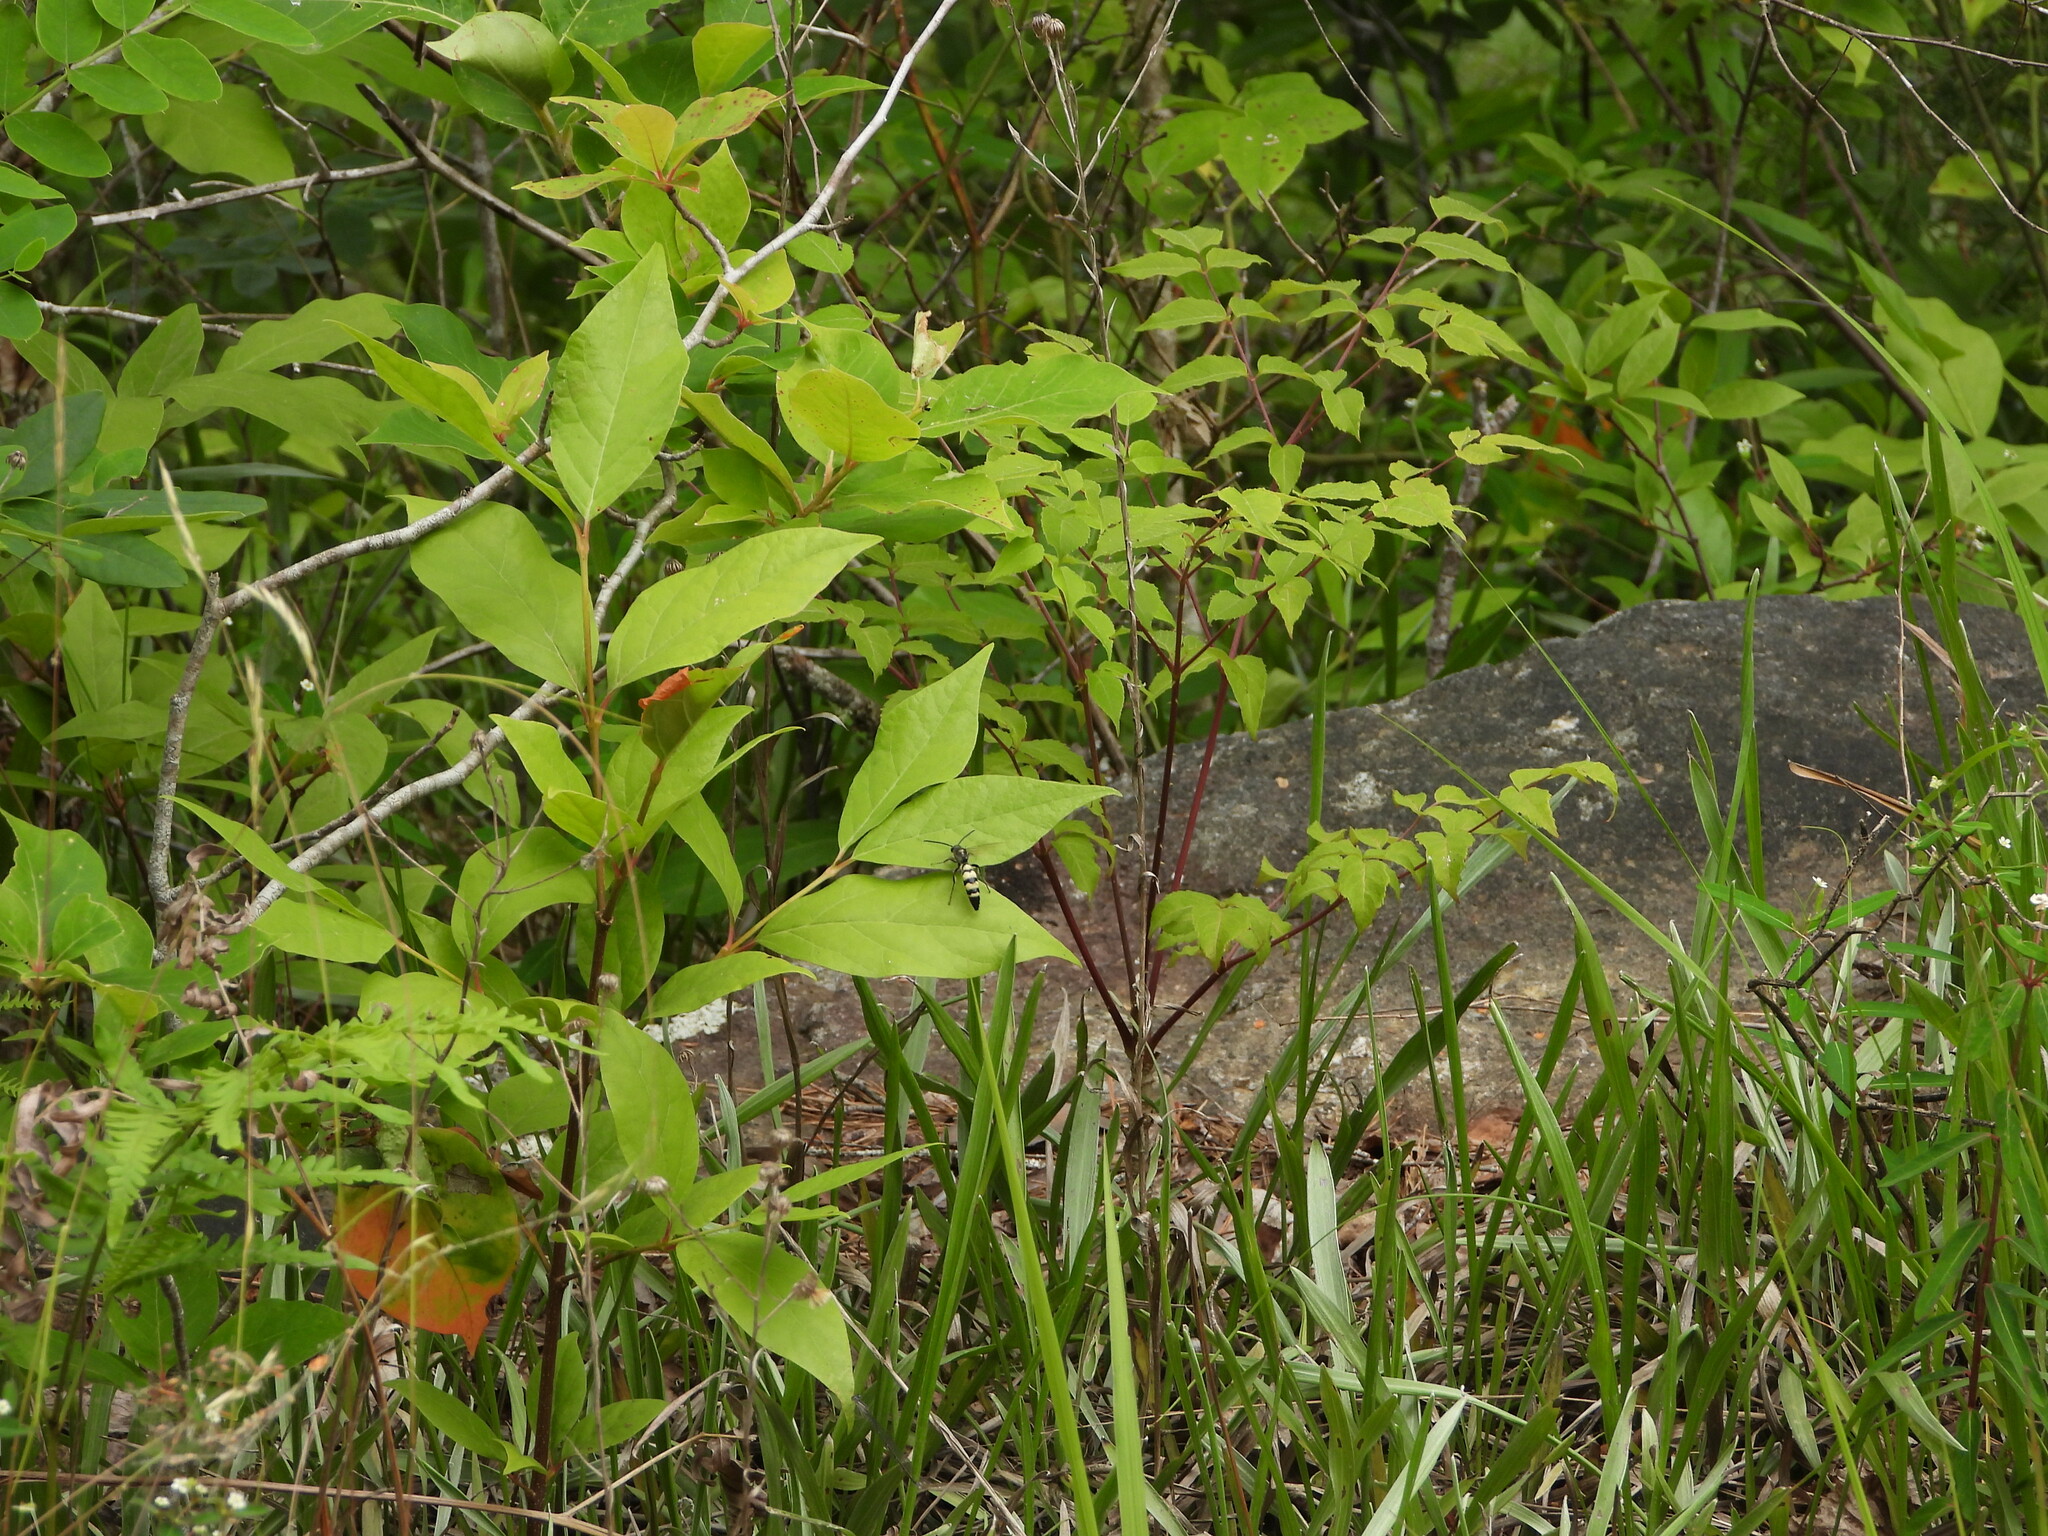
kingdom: Animalia
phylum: Arthropoda
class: Insecta
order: Hymenoptera
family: Scoliidae
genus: Dielis
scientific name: Dielis
